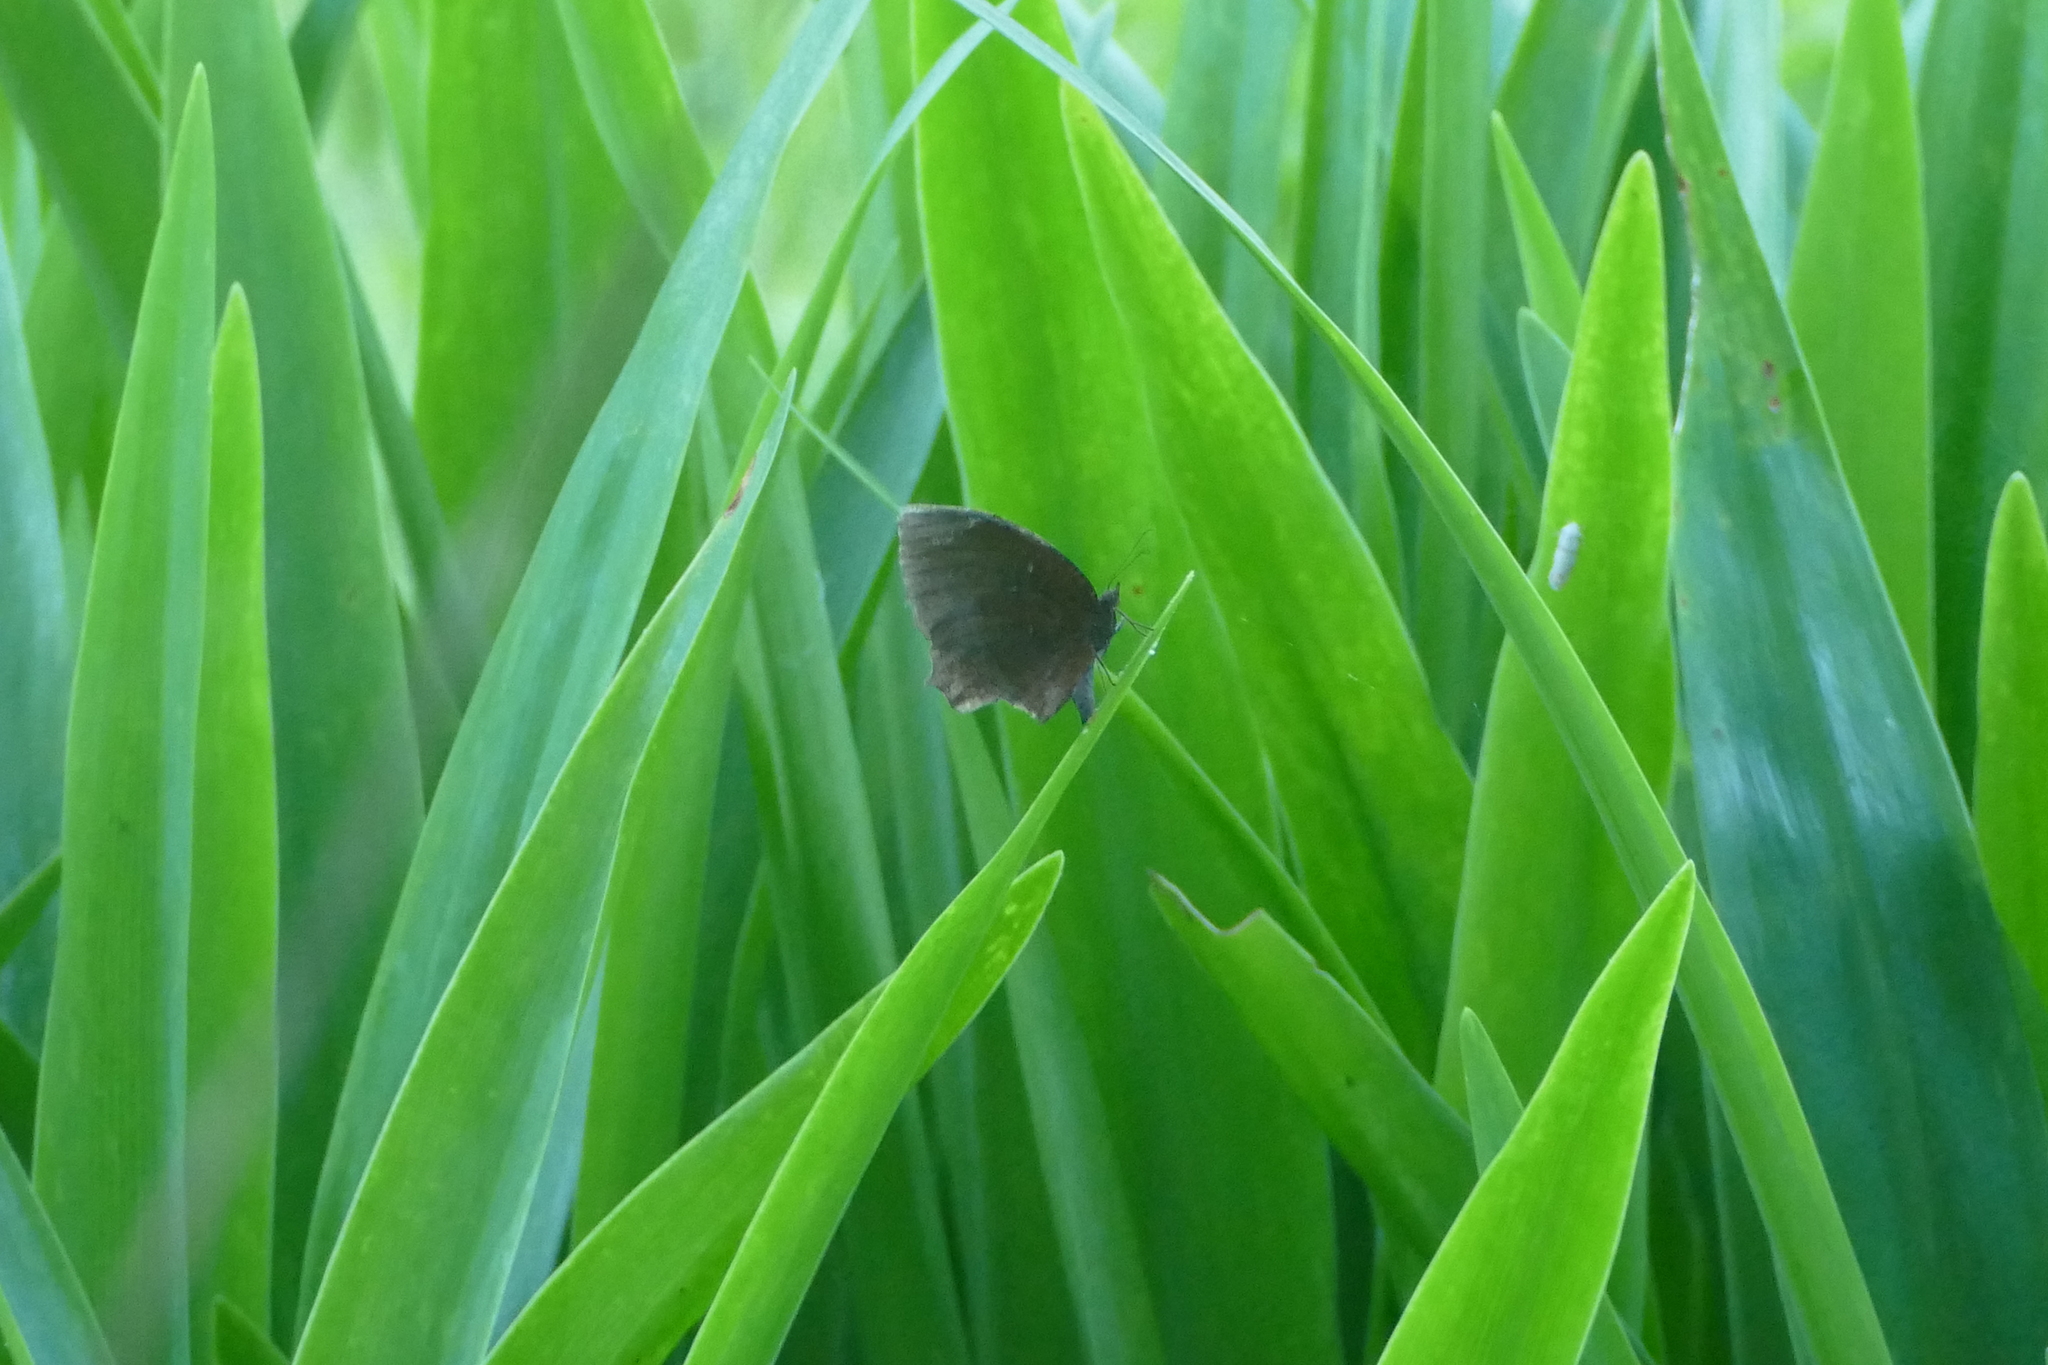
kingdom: Animalia
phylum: Arthropoda
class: Insecta
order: Lepidoptera
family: Nymphalidae
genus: Elymnias
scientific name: Elymnias hypermnestra
